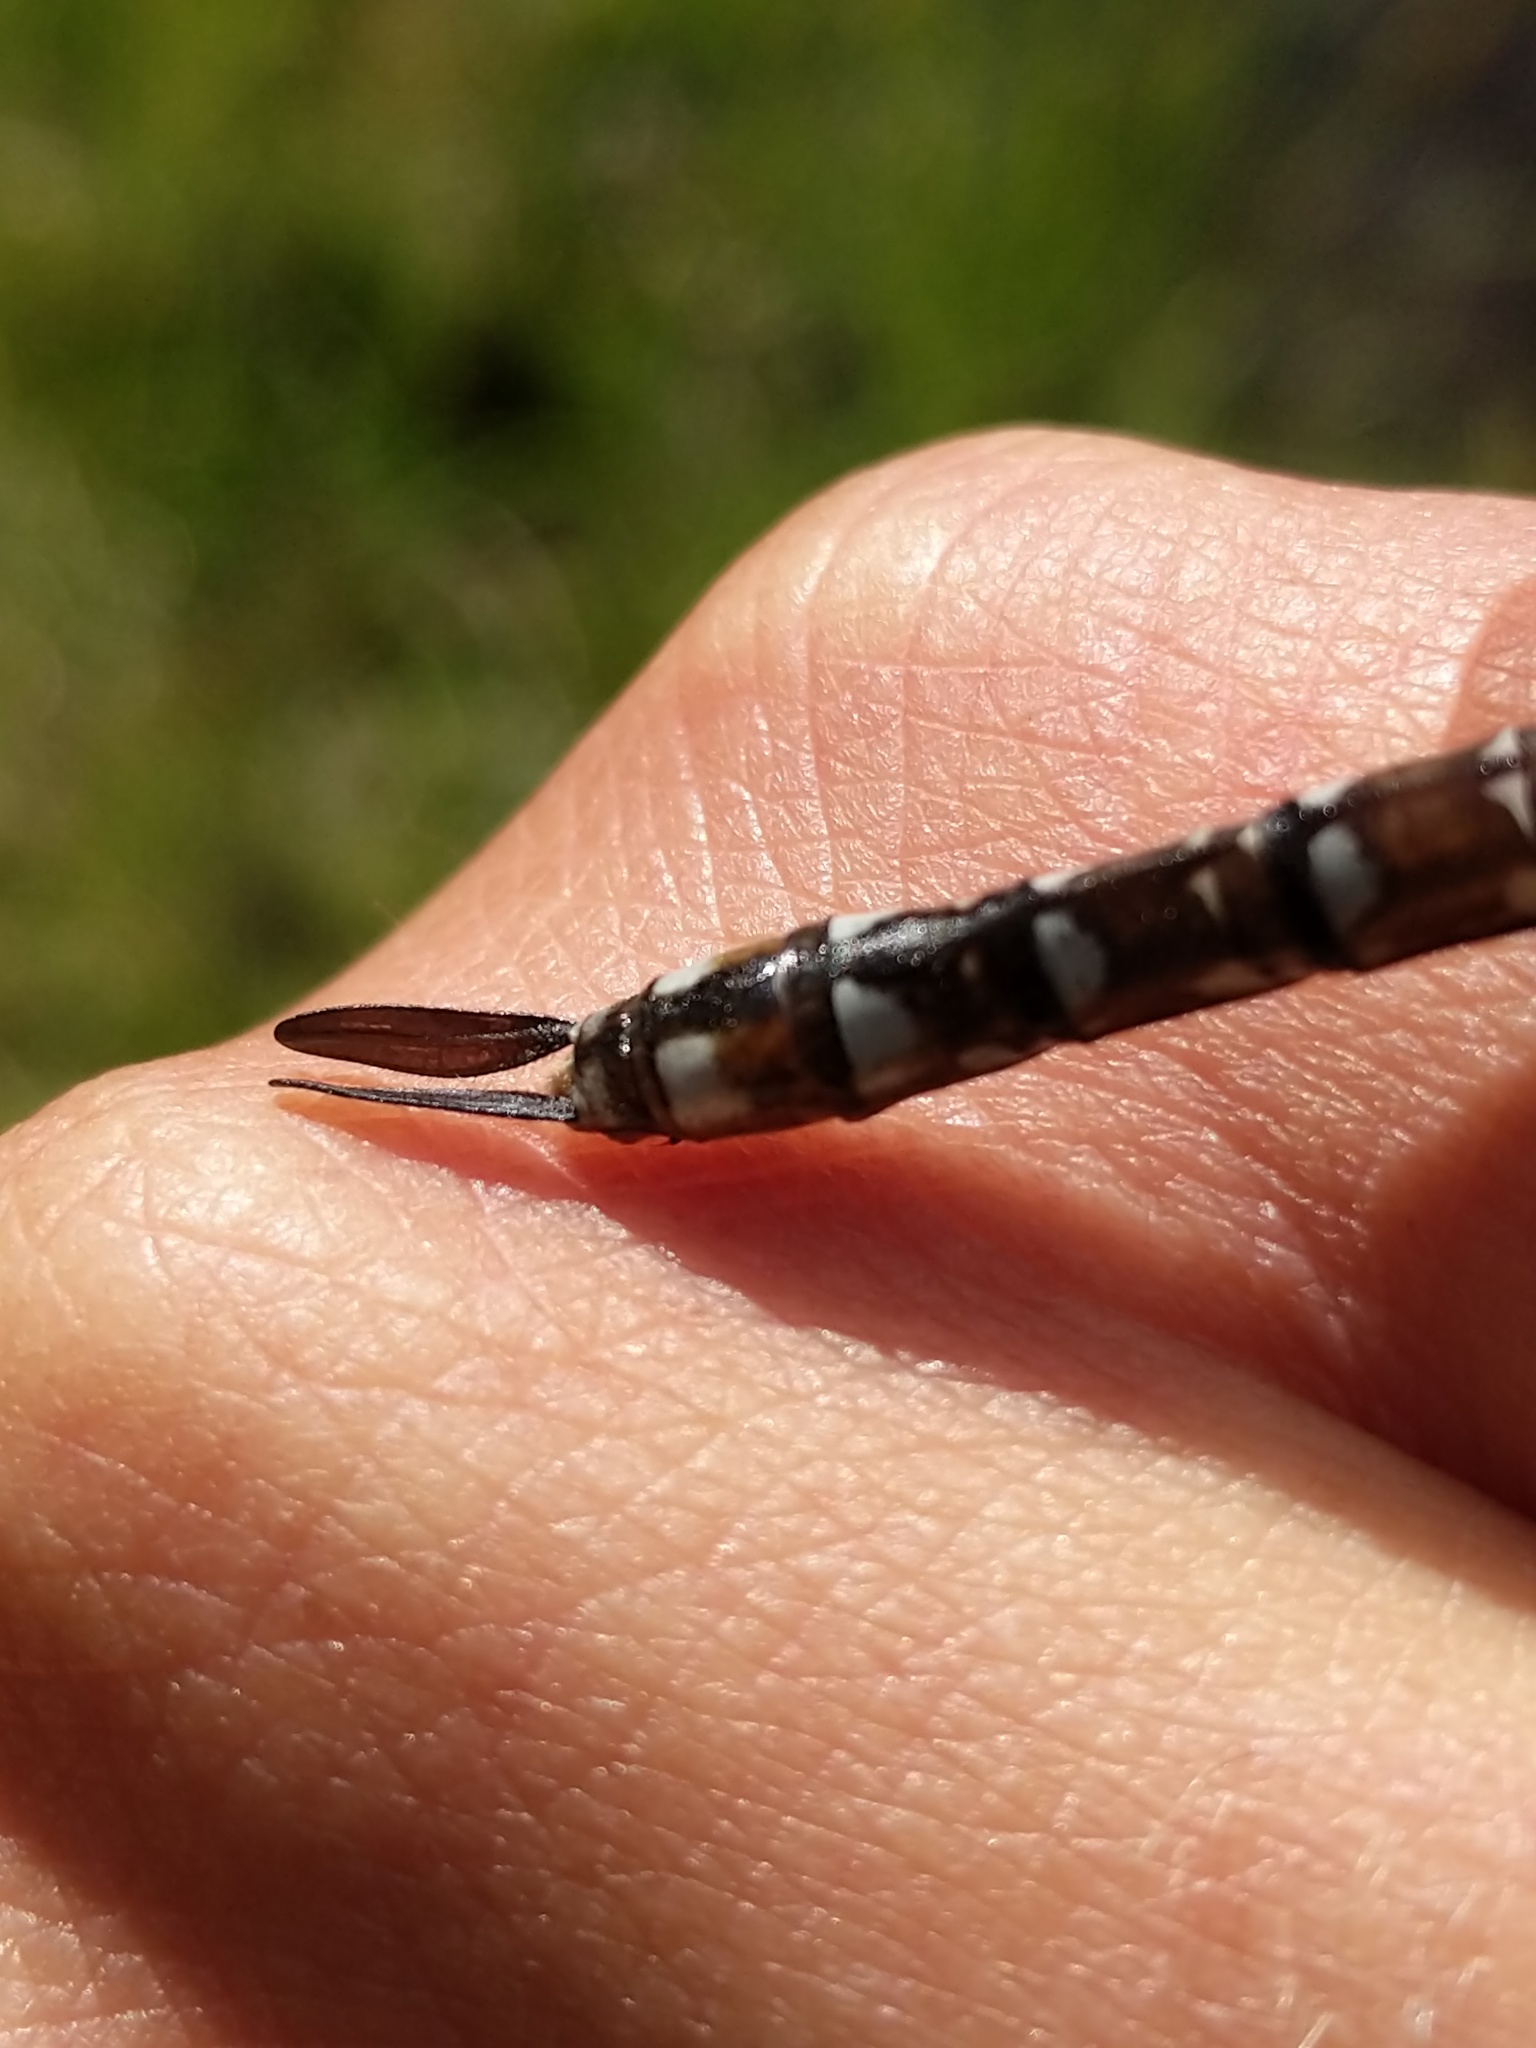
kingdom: Animalia
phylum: Arthropoda
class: Insecta
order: Odonata
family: Aeshnidae
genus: Aeshna
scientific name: Aeshna palmata
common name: Paddle-tailed darner
